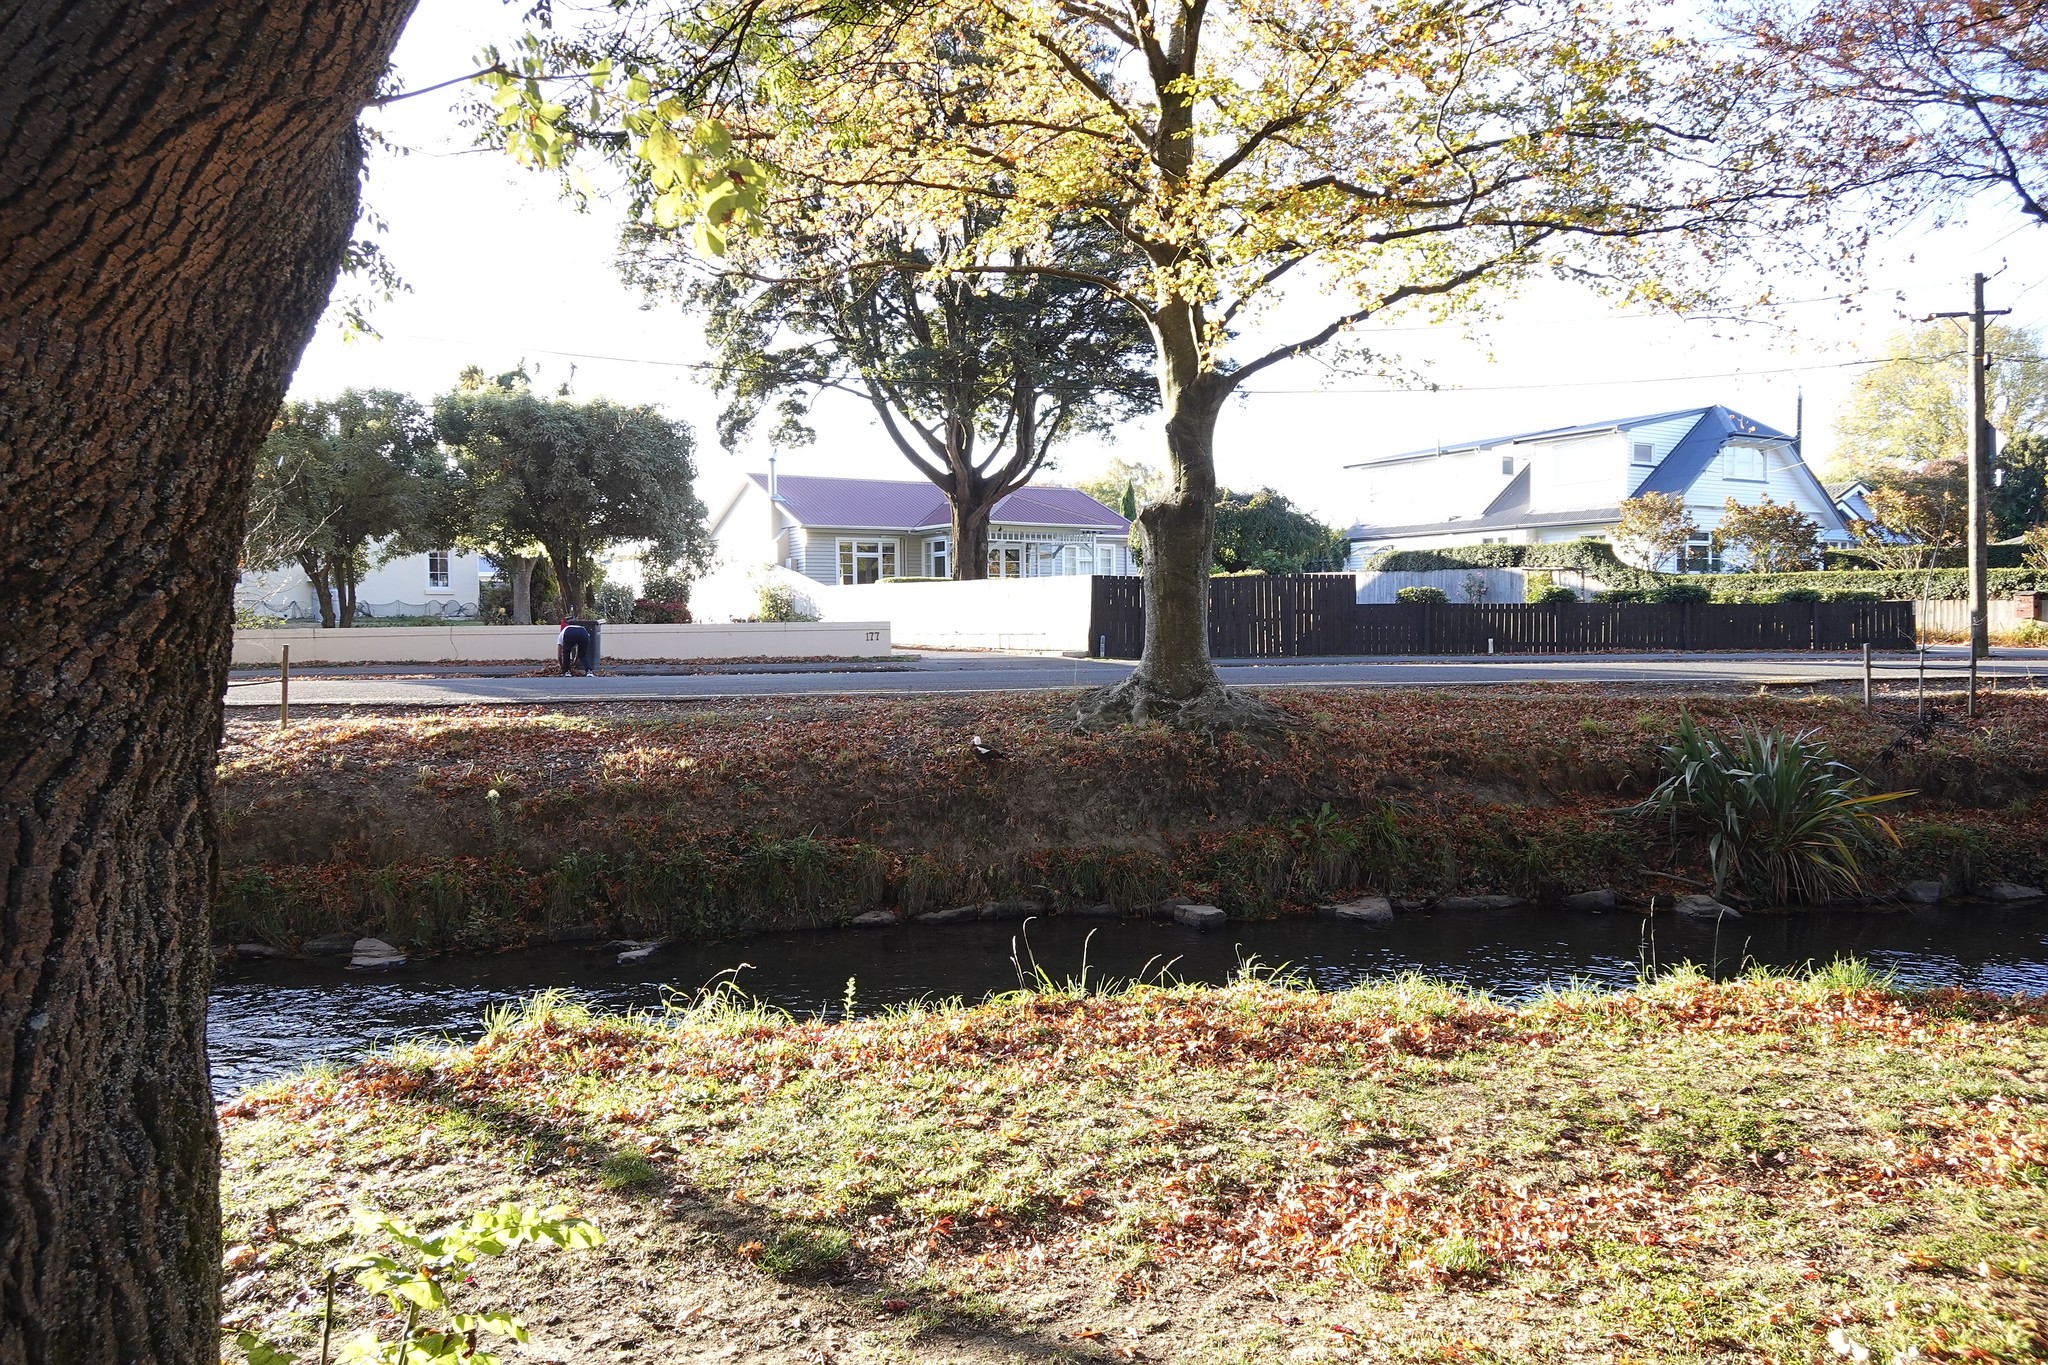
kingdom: Animalia
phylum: Chordata
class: Aves
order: Anseriformes
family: Anatidae
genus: Tadorna
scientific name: Tadorna variegata
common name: Paradise shelduck
